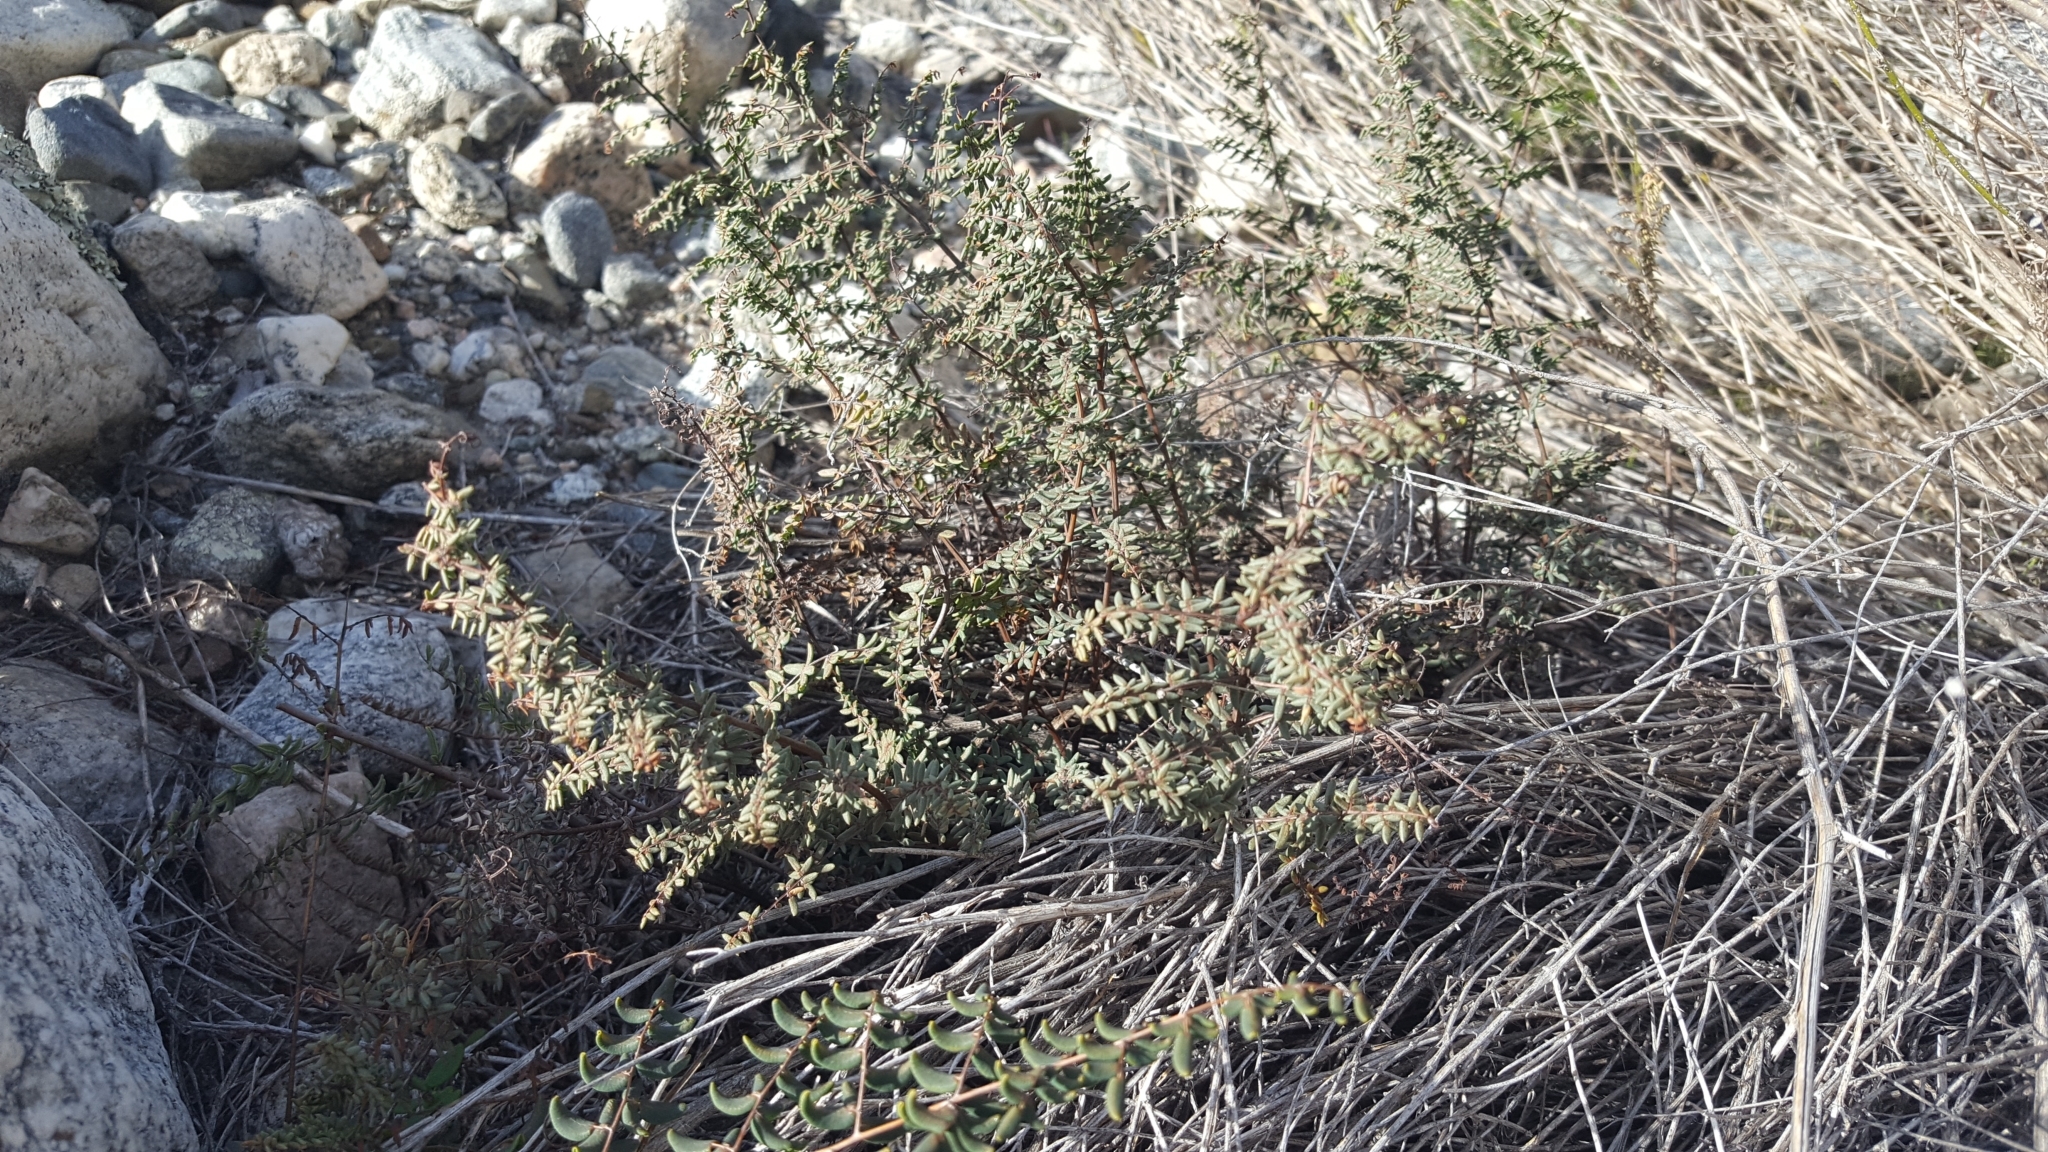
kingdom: Plantae
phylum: Tracheophyta
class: Polypodiopsida
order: Polypodiales
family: Pteridaceae
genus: Pellaea
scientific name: Pellaea mucronata
